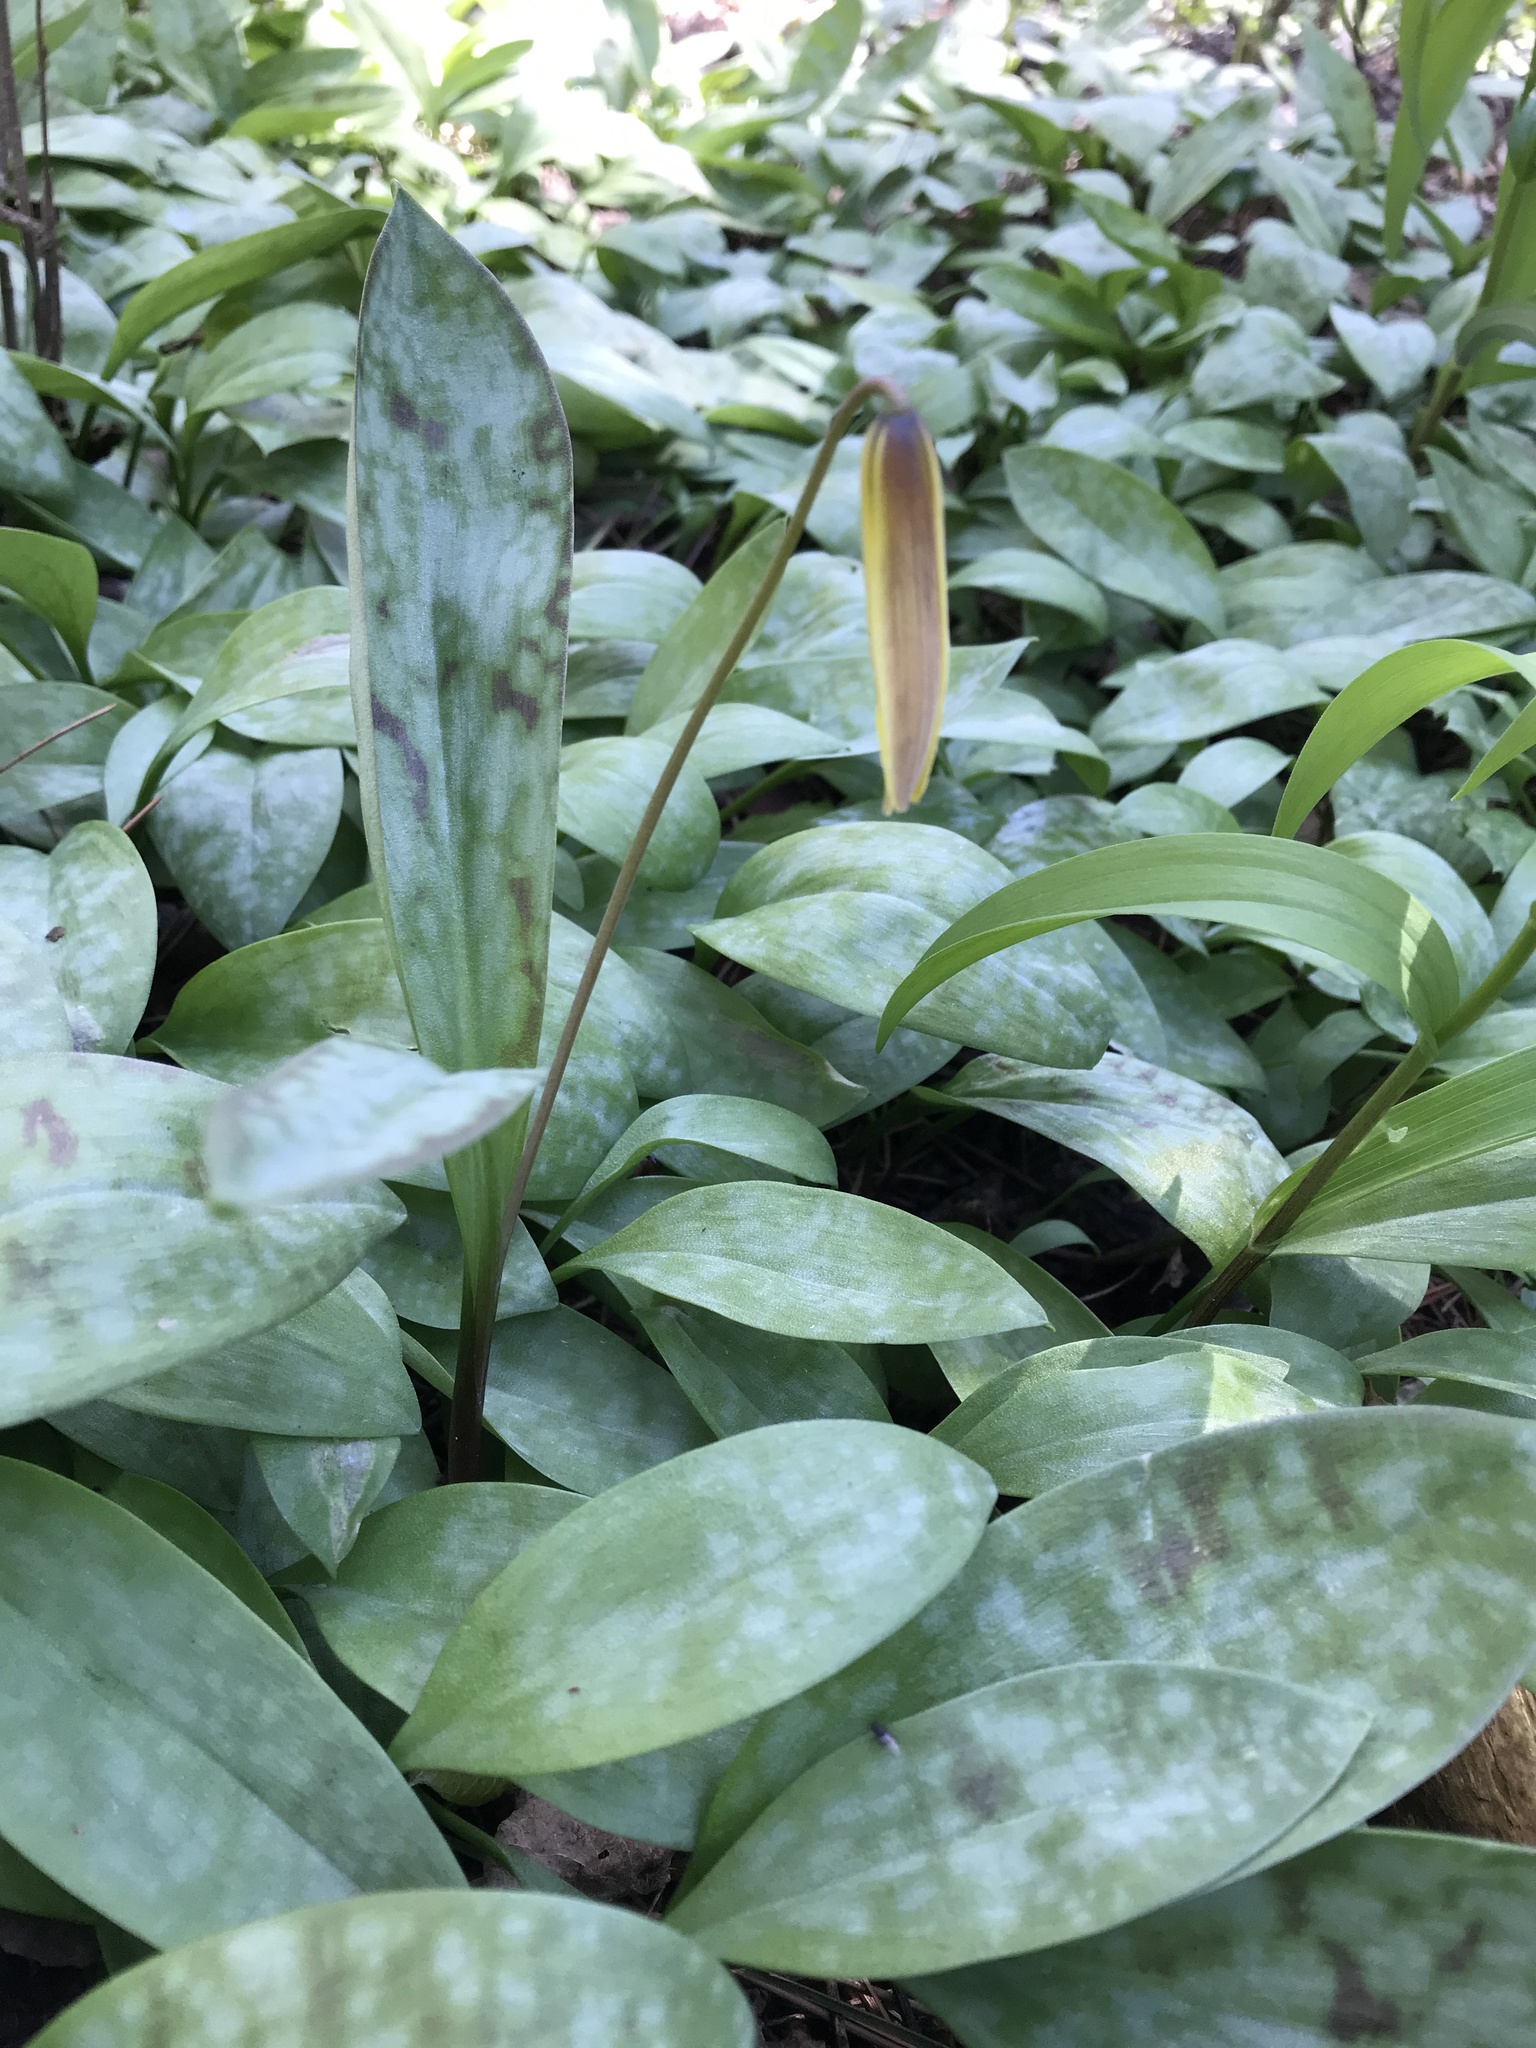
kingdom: Plantae
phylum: Tracheophyta
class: Liliopsida
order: Liliales
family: Liliaceae
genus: Erythronium
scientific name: Erythronium americanum
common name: Yellow adder's-tongue
